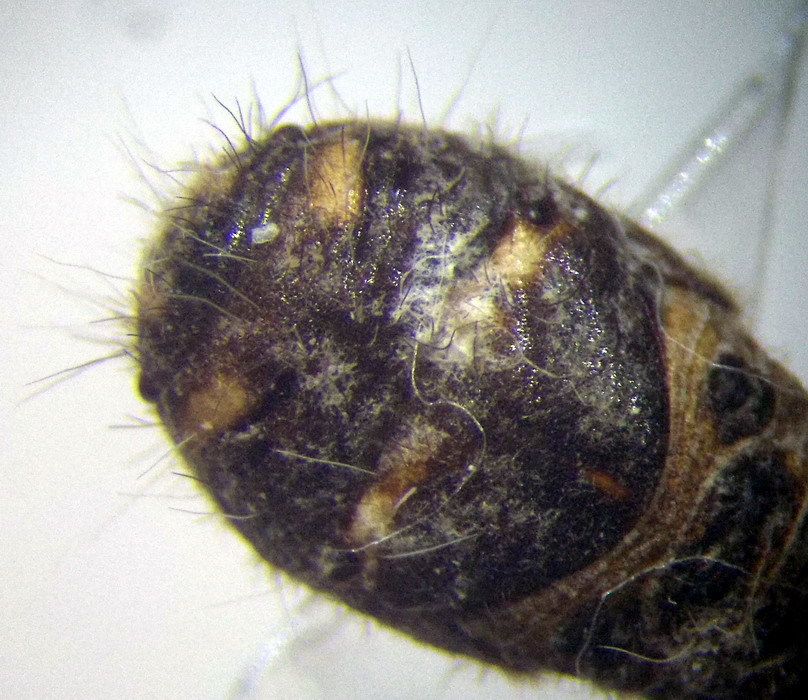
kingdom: Animalia
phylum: Arthropoda
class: Insecta
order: Hemiptera
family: Scutelleridae
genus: Irochrotus
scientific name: Irochrotus lanatus
